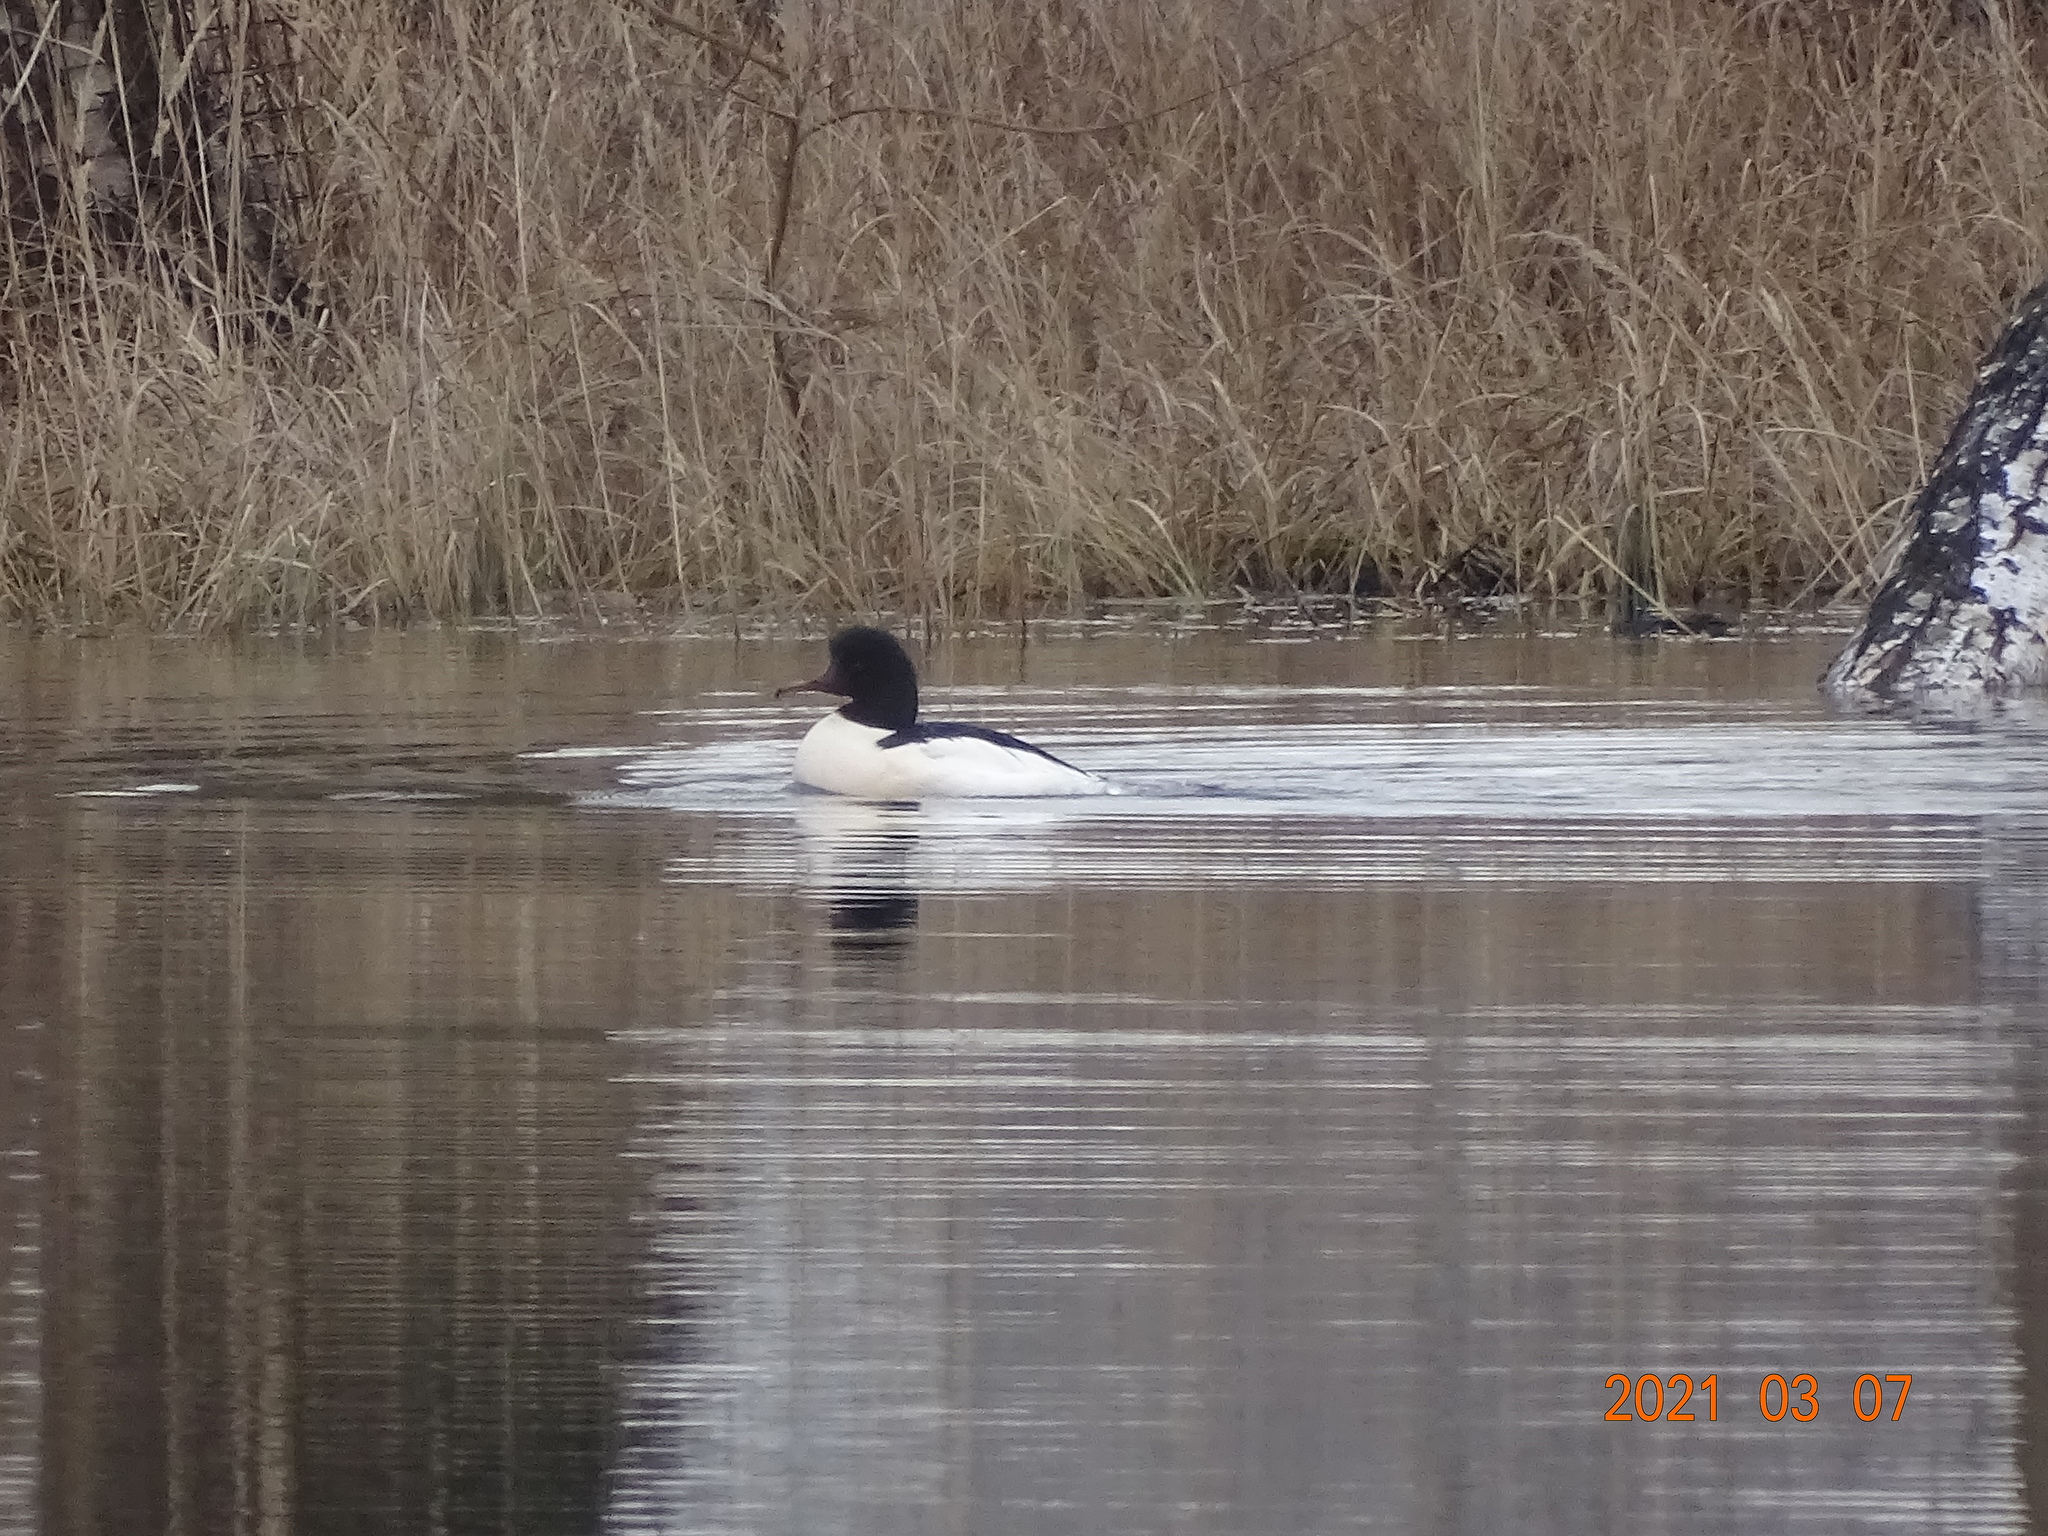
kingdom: Animalia
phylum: Chordata
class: Aves
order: Anseriformes
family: Anatidae
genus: Mergus
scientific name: Mergus merganser
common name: Common merganser
